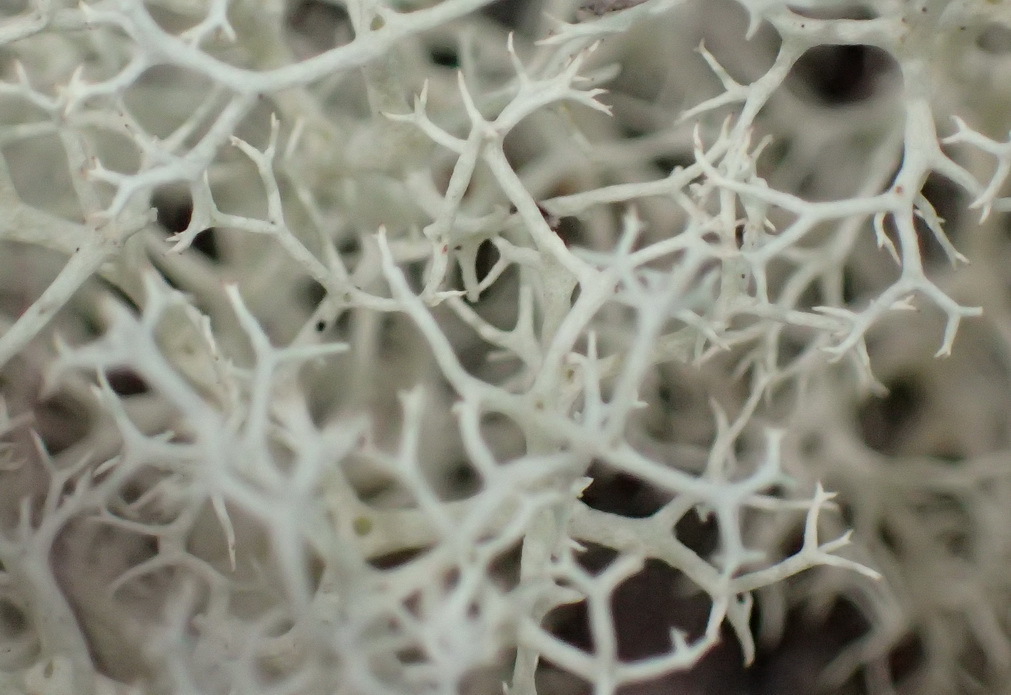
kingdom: Fungi
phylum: Ascomycota
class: Lecanoromycetes
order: Lecanorales
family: Cladoniaceae
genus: Cladonia
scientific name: Cladonia confusa
